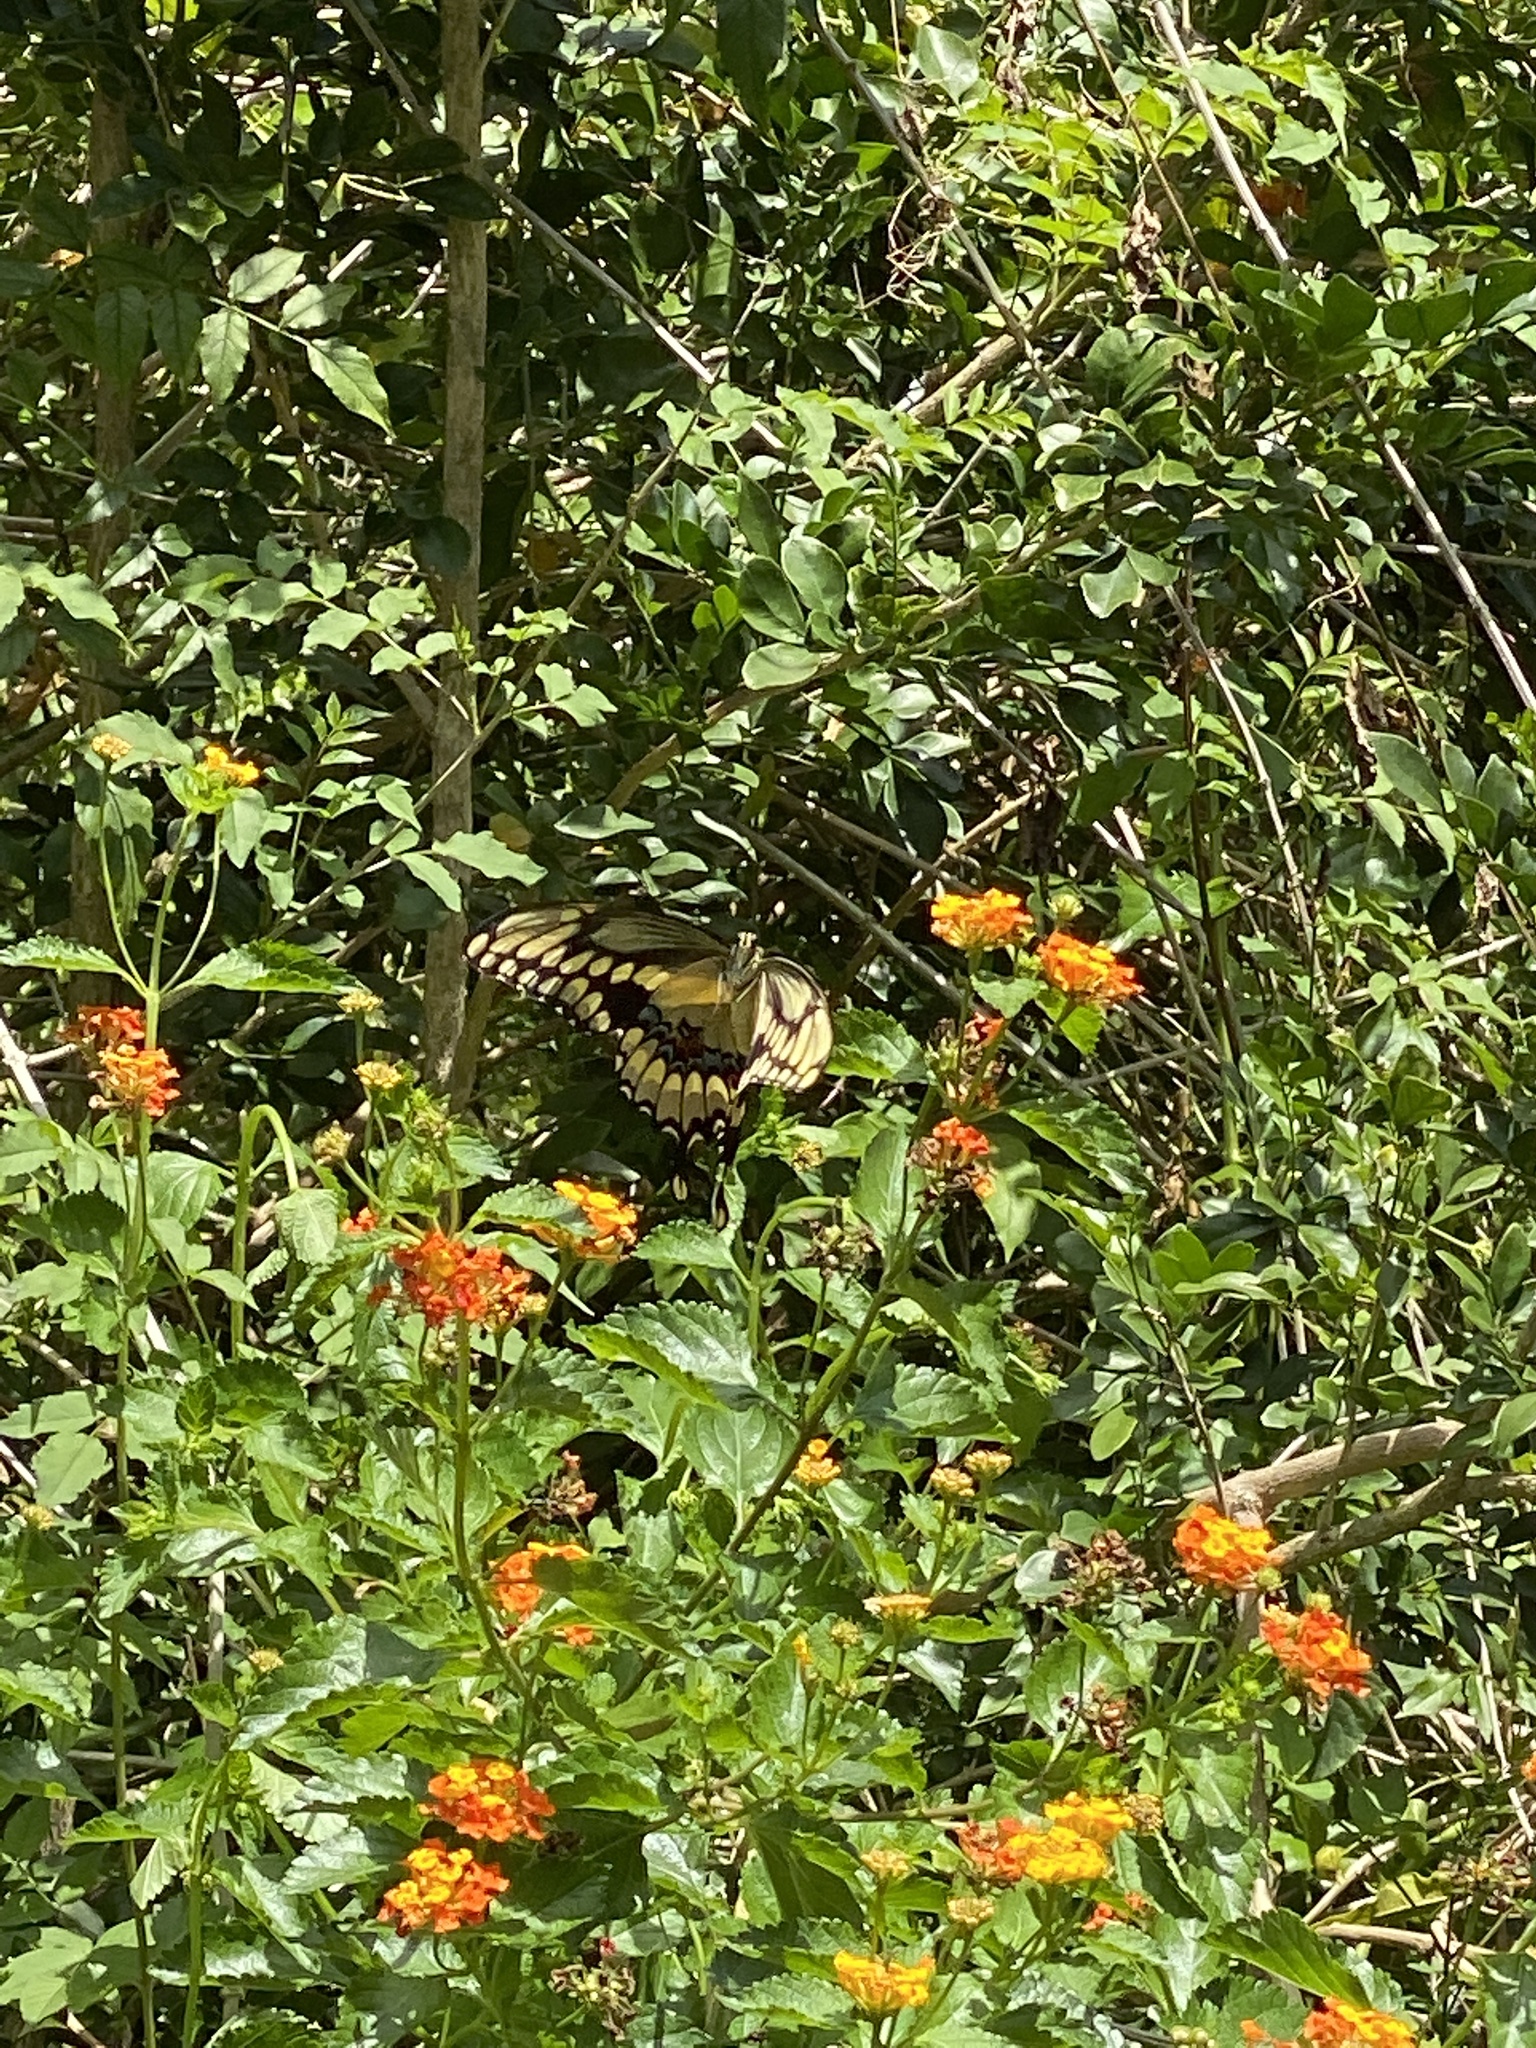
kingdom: Animalia
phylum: Arthropoda
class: Insecta
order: Lepidoptera
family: Papilionidae
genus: Papilio
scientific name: Papilio cresphontes
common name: Giant swallowtail
